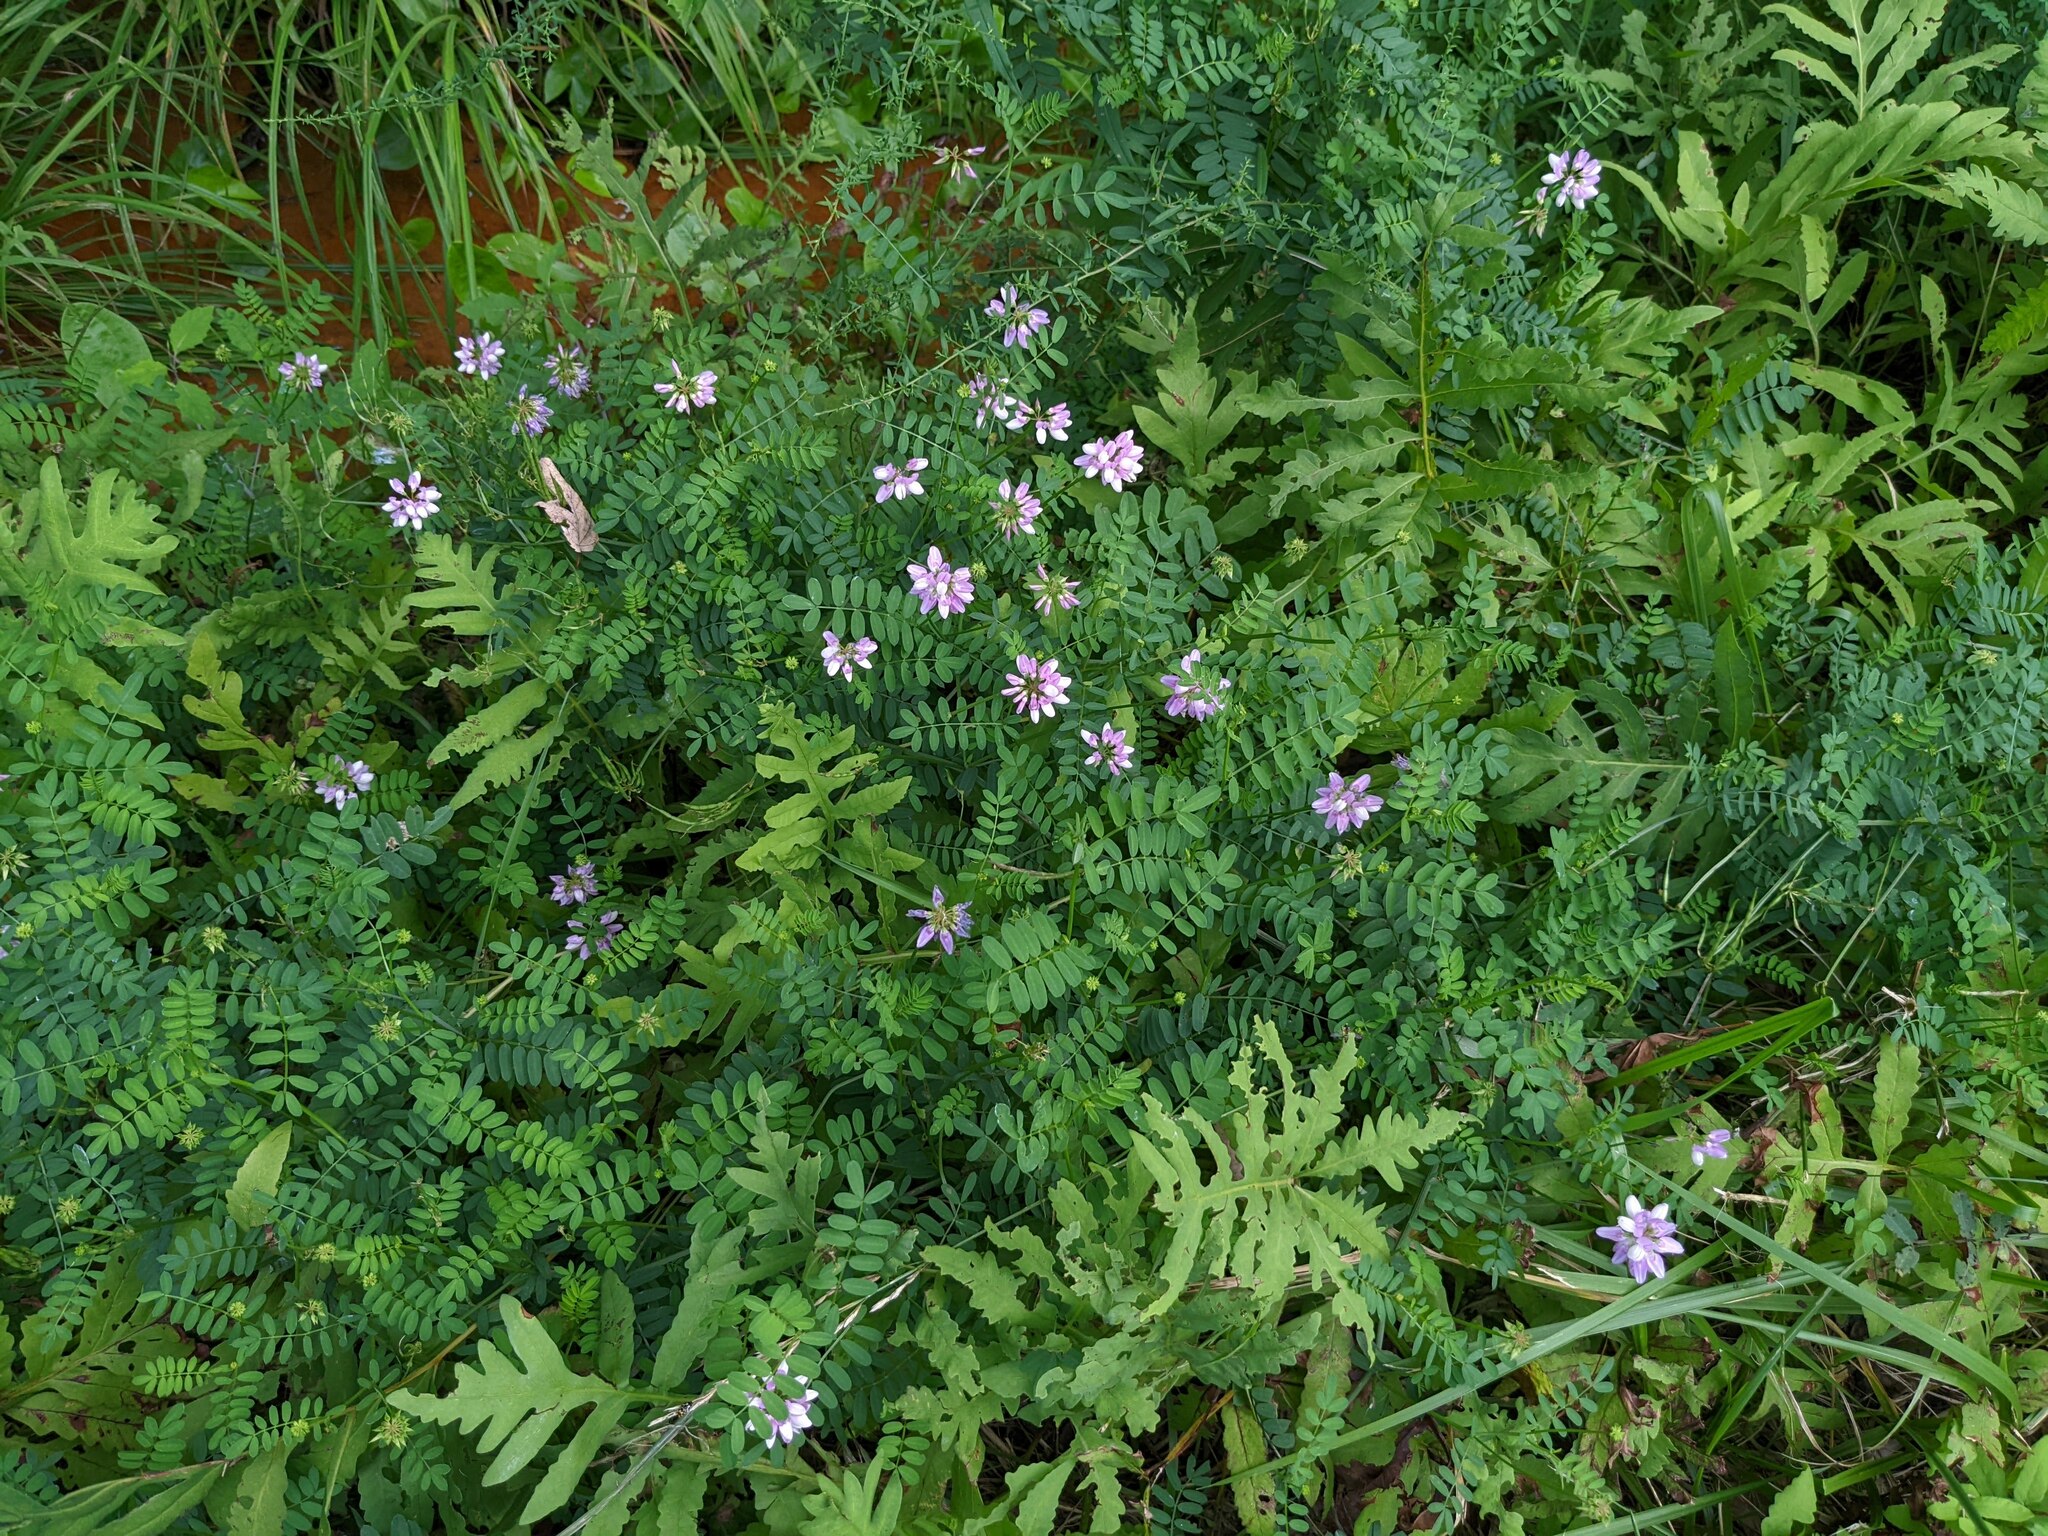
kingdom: Plantae
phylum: Tracheophyta
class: Magnoliopsida
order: Fabales
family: Fabaceae
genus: Coronilla
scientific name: Coronilla varia
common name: Crownvetch
